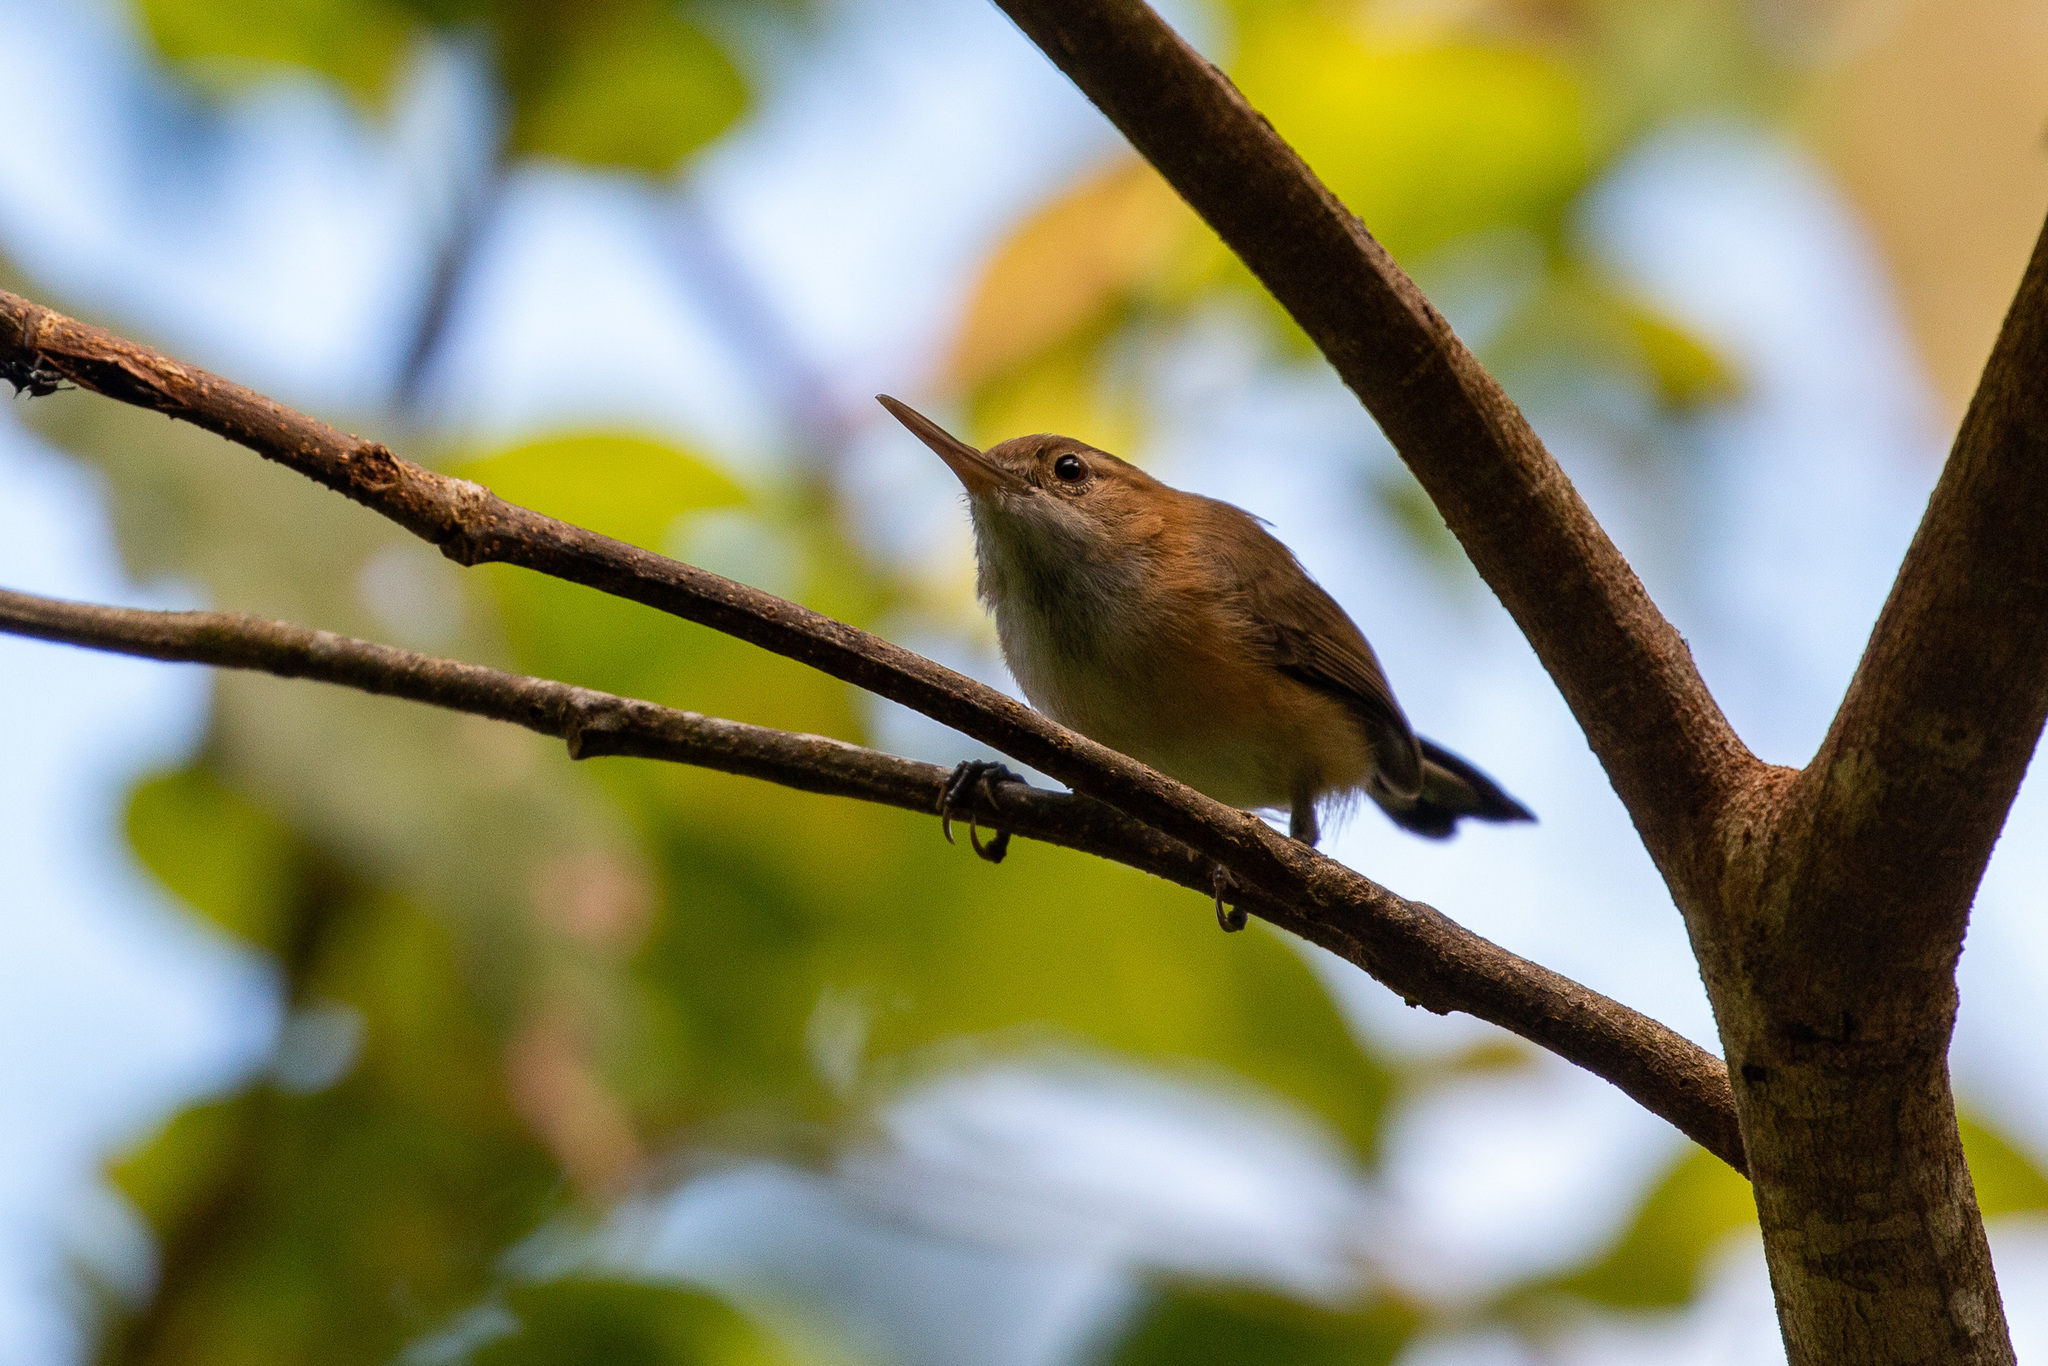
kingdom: Animalia
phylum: Chordata
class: Aves
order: Passeriformes
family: Polioptilidae
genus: Ramphocaenus
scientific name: Ramphocaenus melanurus
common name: Long-billed gnatwren
